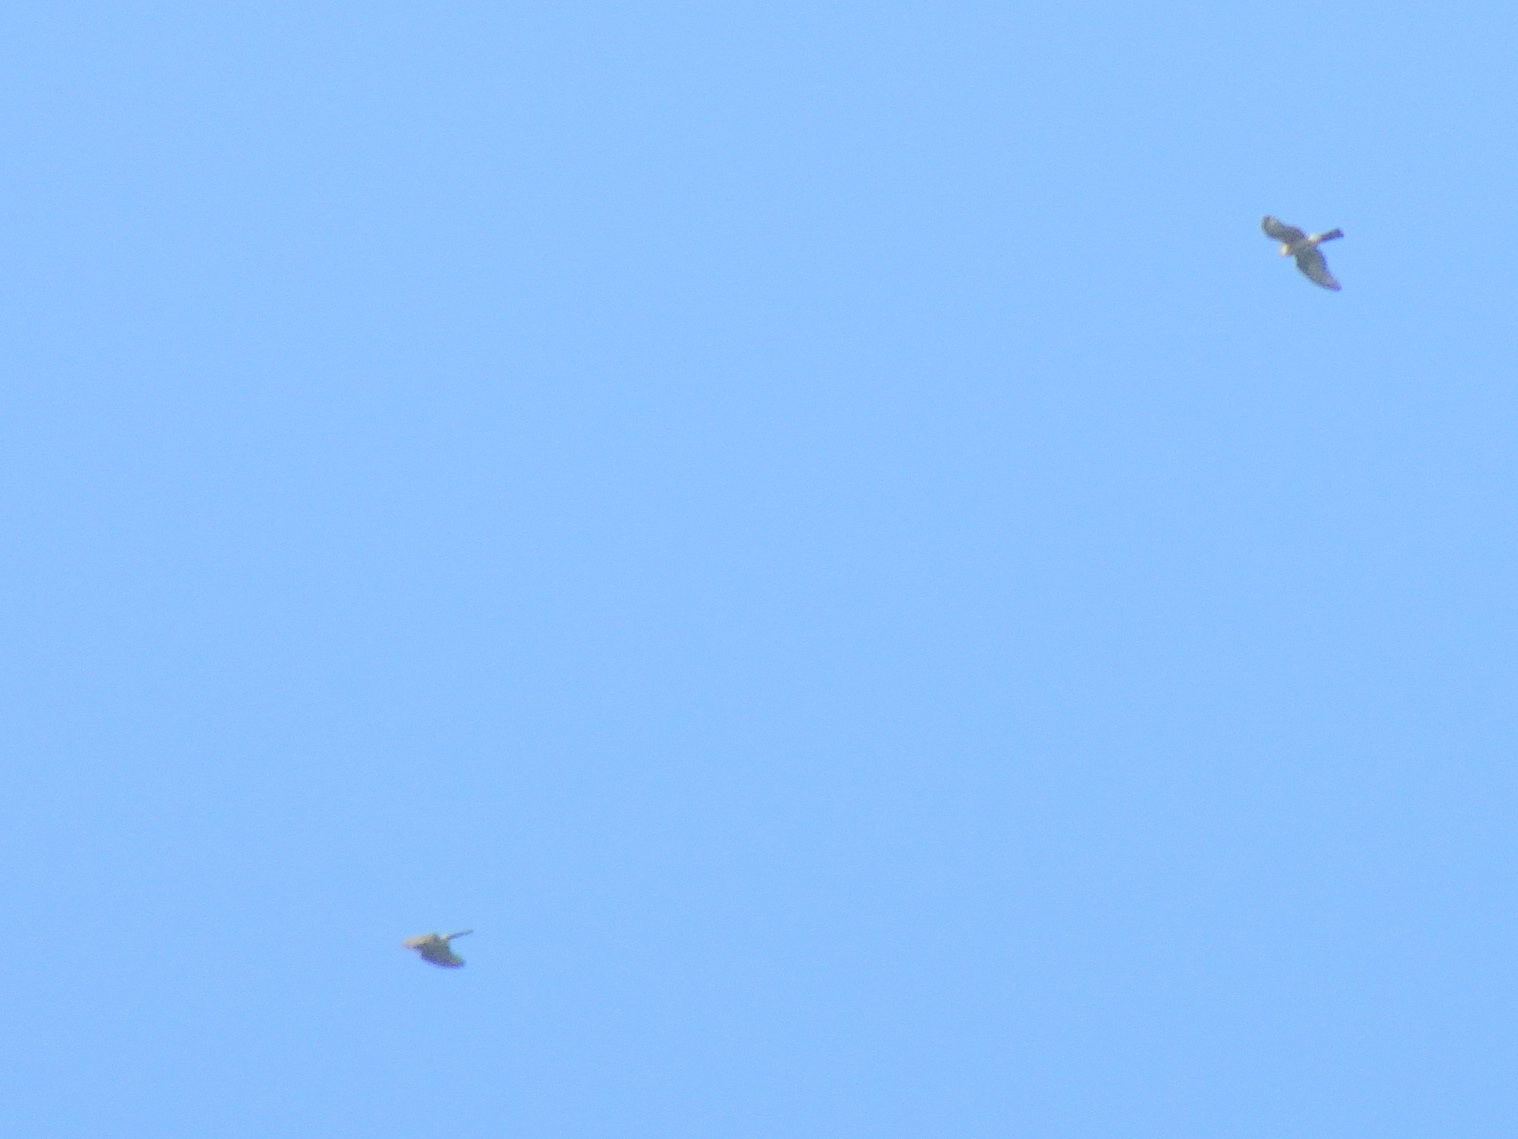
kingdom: Animalia
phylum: Chordata
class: Aves
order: Accipitriformes
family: Accipitridae
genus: Accipiter
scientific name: Accipiter striatus
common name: Sharp-shinned hawk
